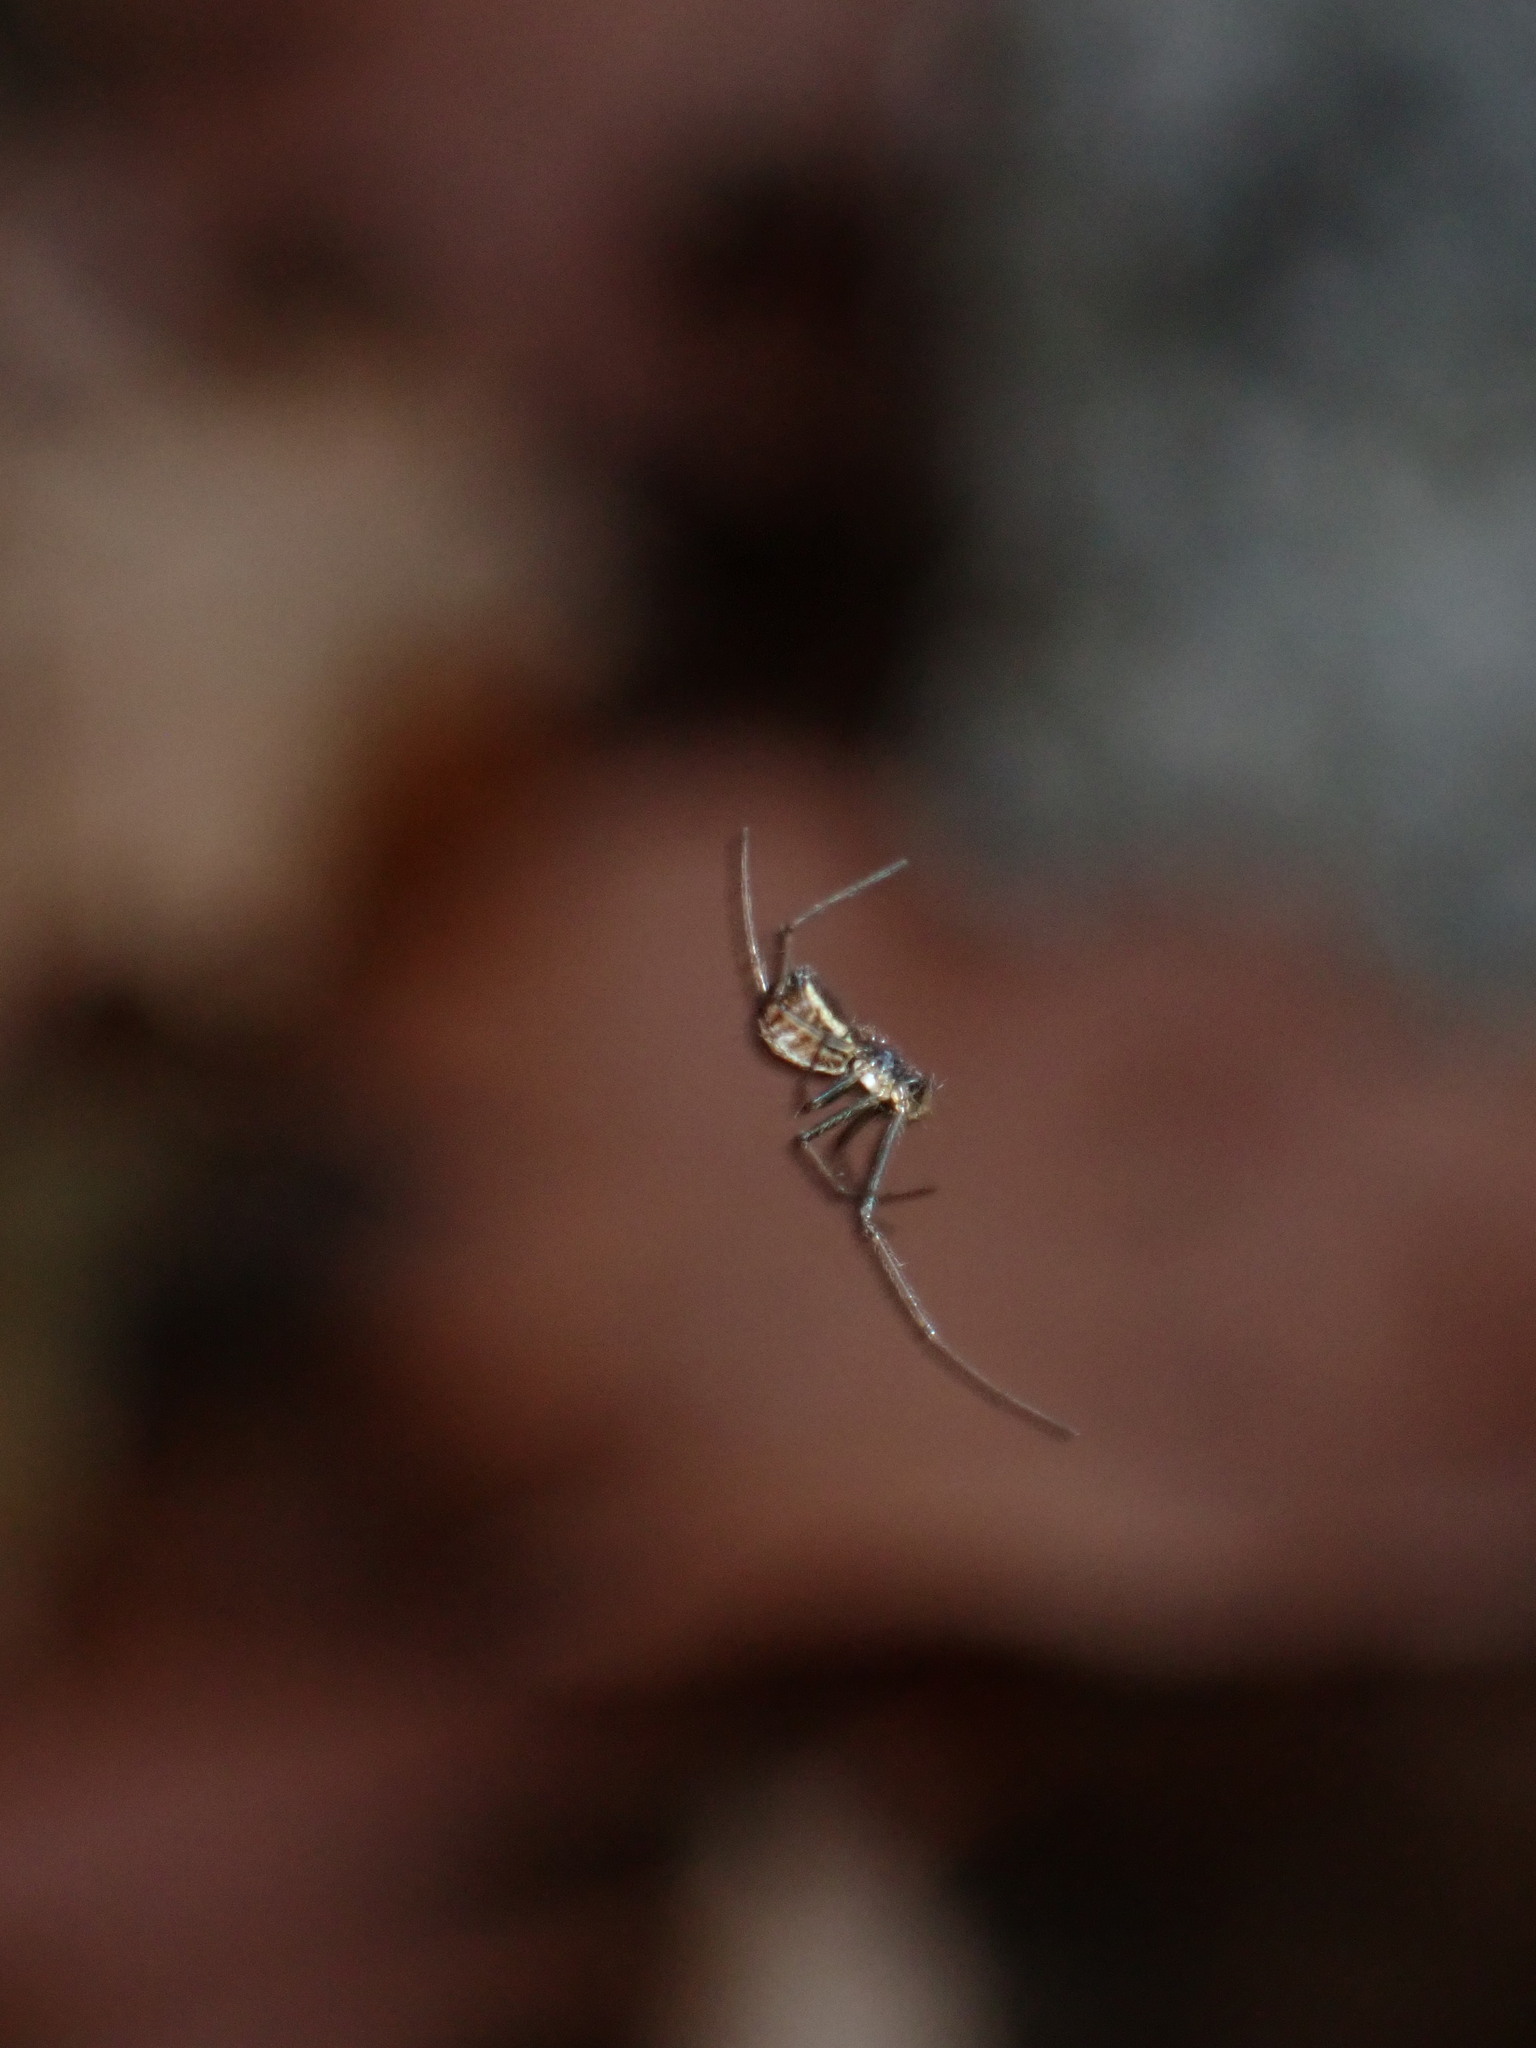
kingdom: Animalia
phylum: Arthropoda
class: Arachnida
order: Araneae
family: Linyphiidae
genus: Neriene
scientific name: Neriene radiata
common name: Filmy dome spider
